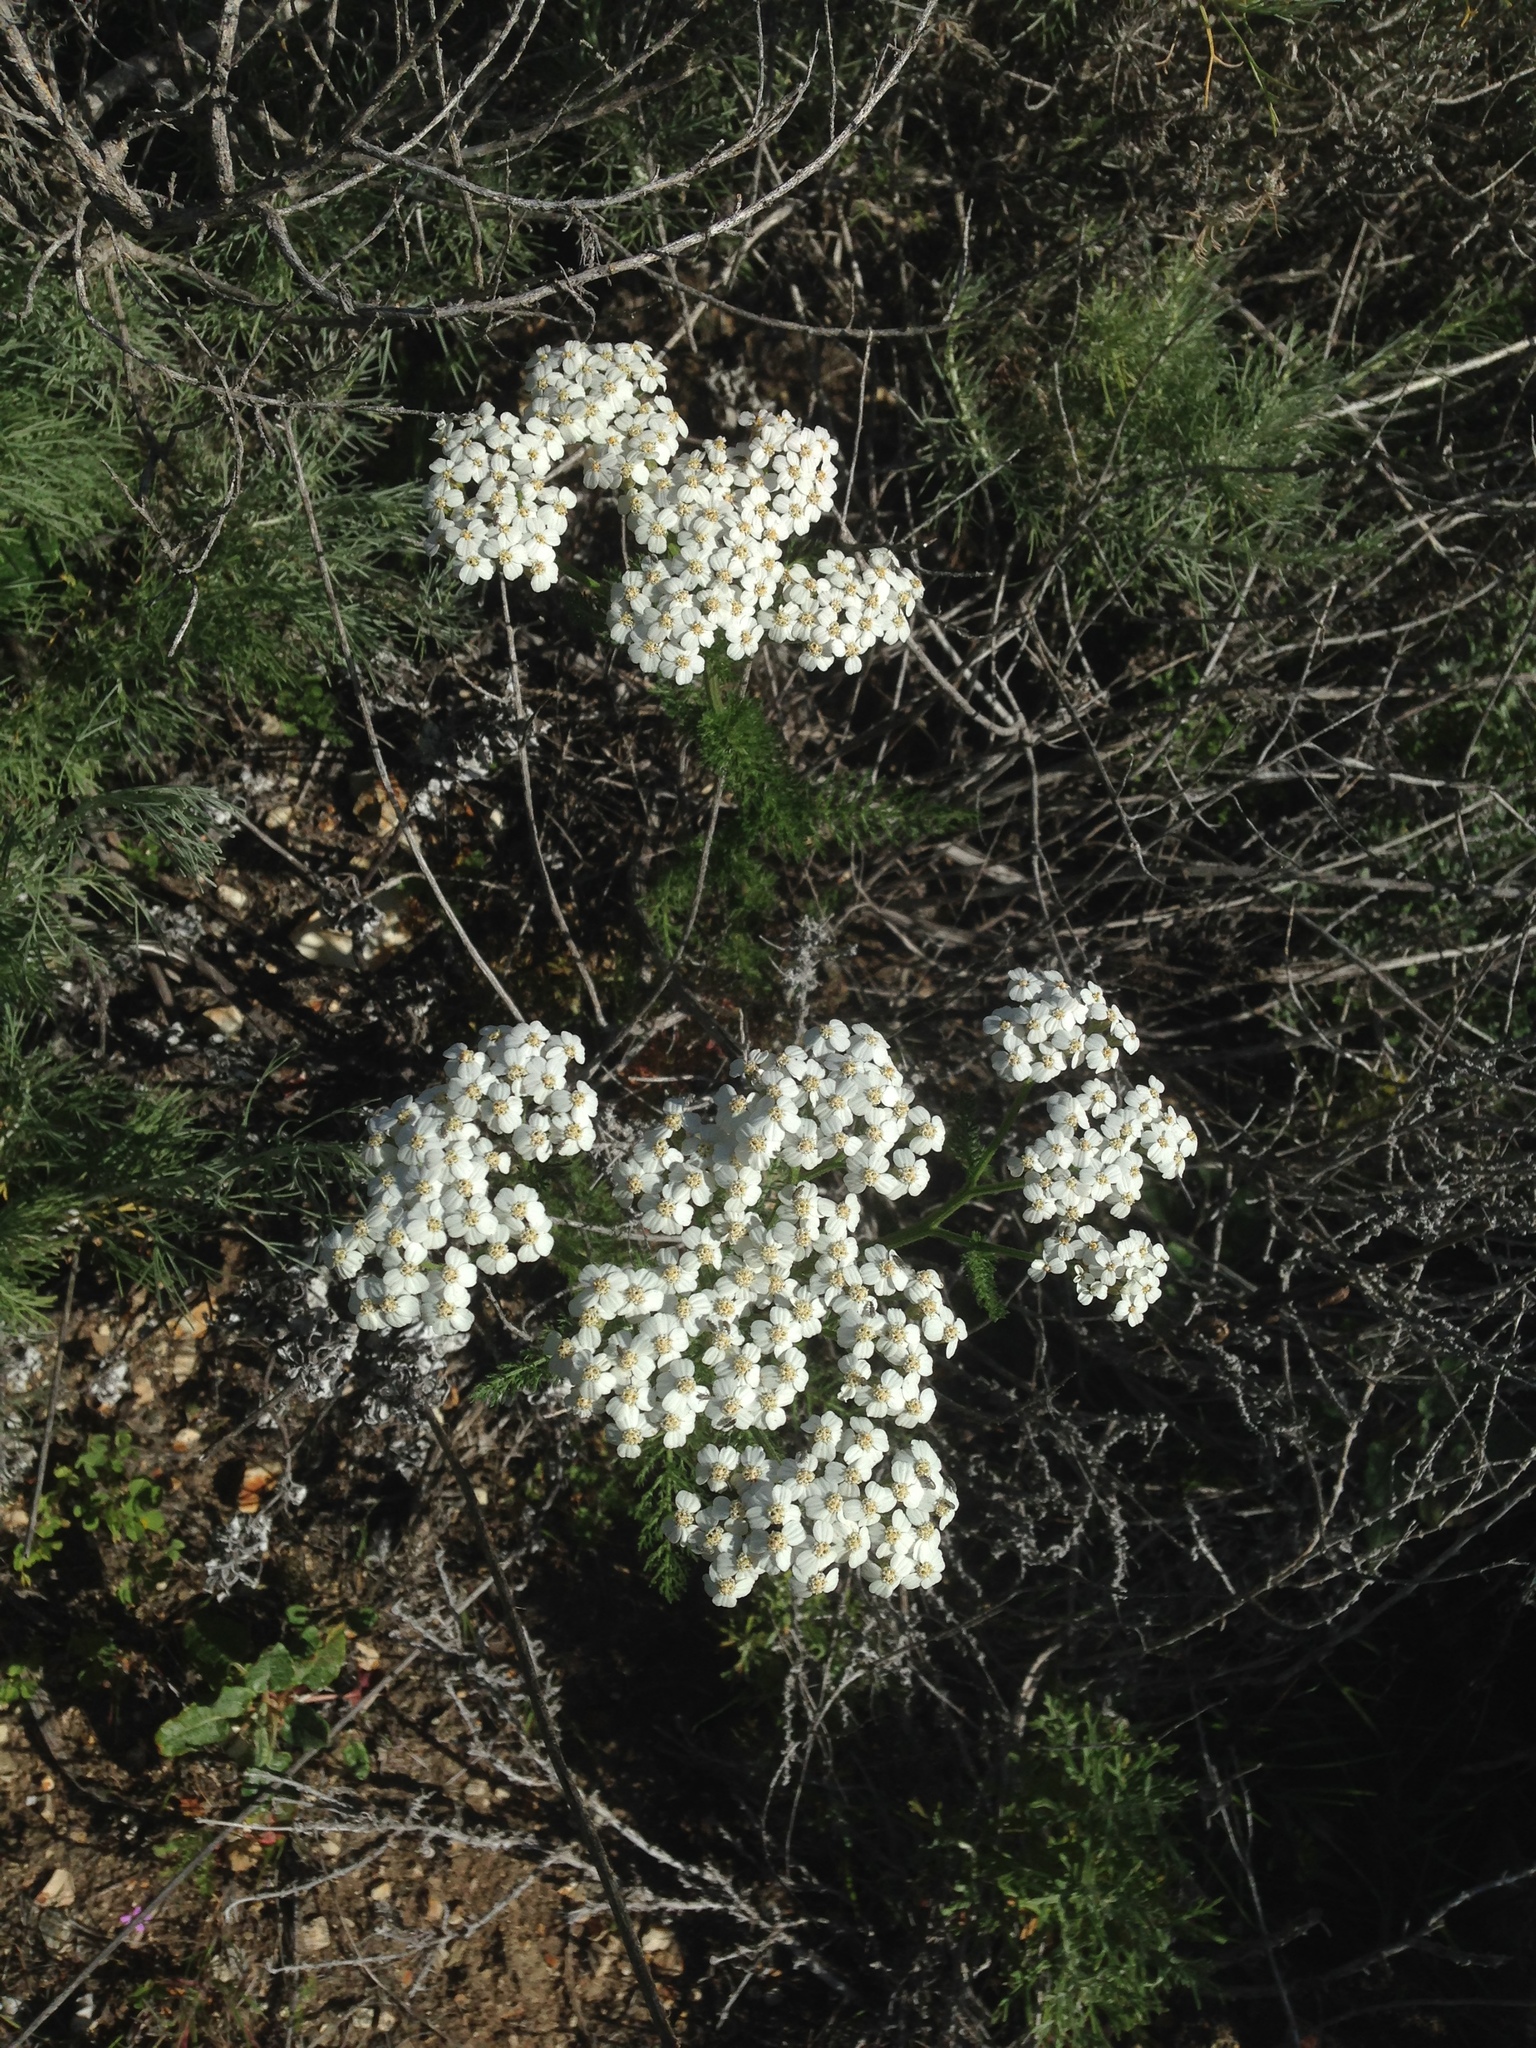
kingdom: Plantae
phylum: Tracheophyta
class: Magnoliopsida
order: Asterales
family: Asteraceae
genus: Achillea
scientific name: Achillea millefolium
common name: Yarrow
